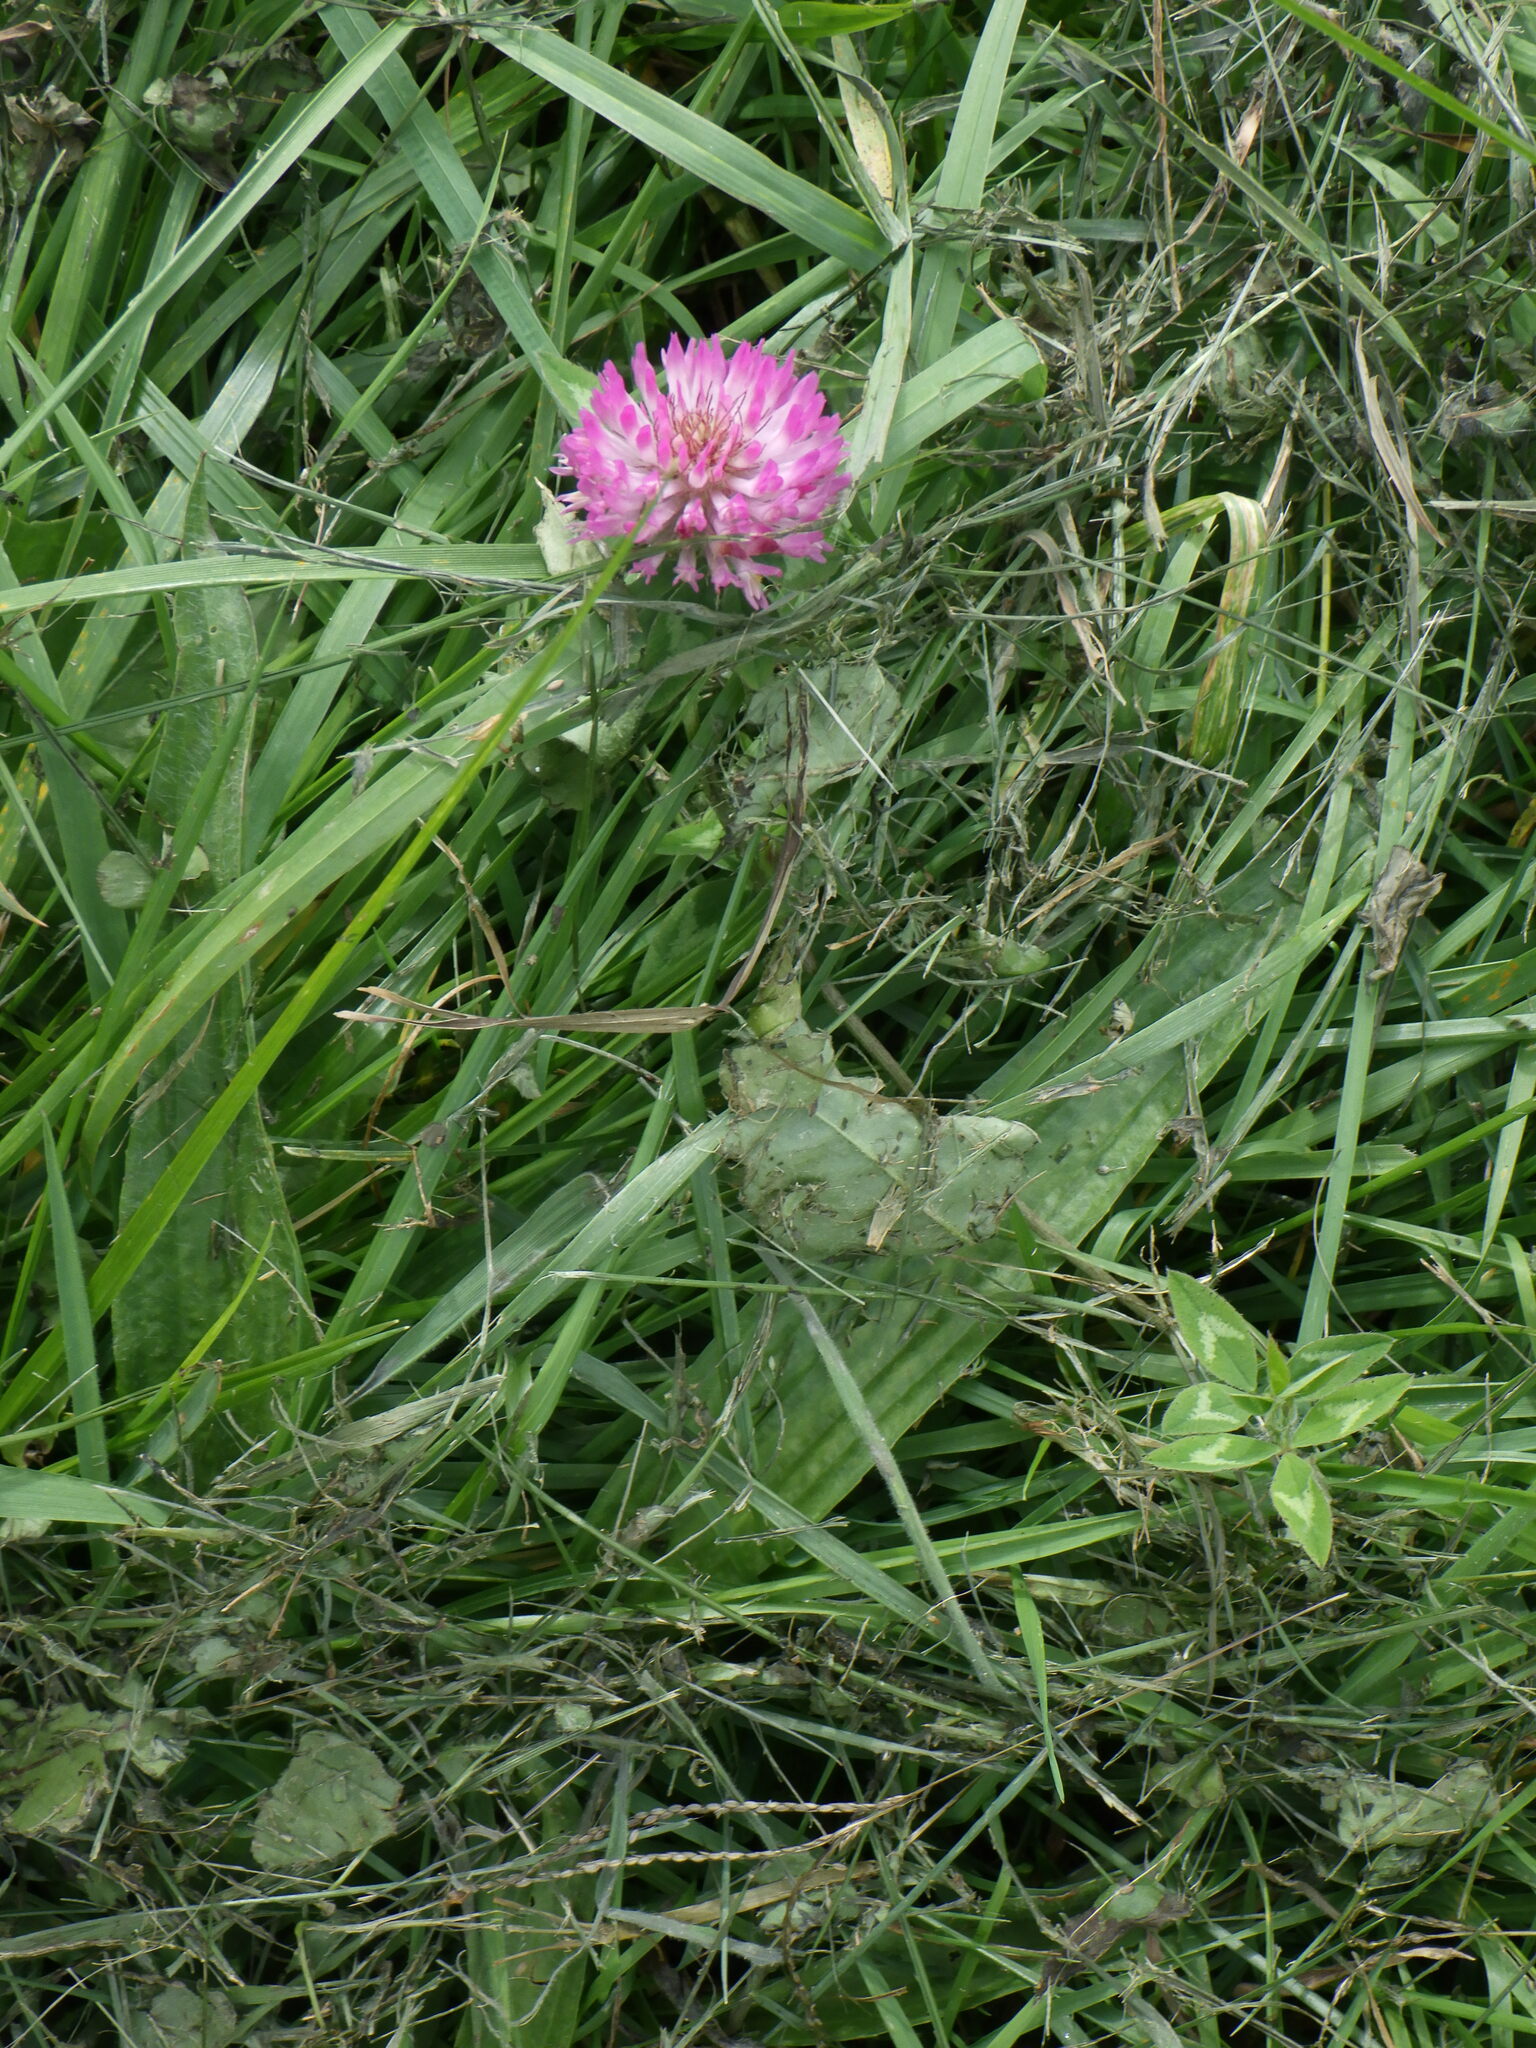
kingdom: Plantae
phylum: Tracheophyta
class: Magnoliopsida
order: Fabales
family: Fabaceae
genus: Trifolium
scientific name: Trifolium pratense
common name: Red clover
